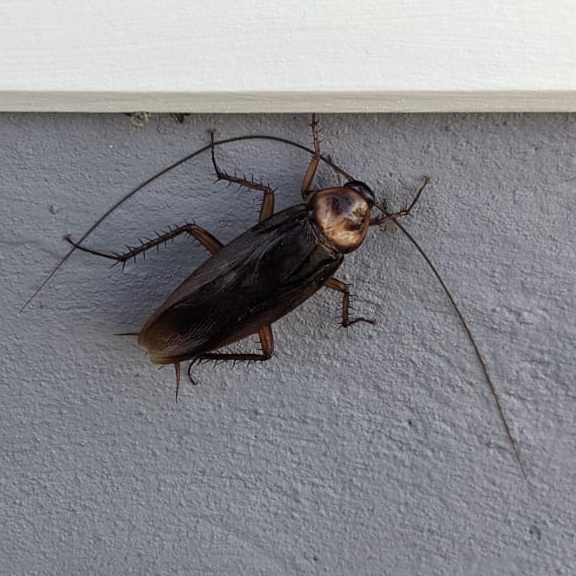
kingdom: Animalia
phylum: Arthropoda
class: Insecta
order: Blattodea
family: Blattidae
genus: Periplaneta
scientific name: Periplaneta americana
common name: American cockroach
